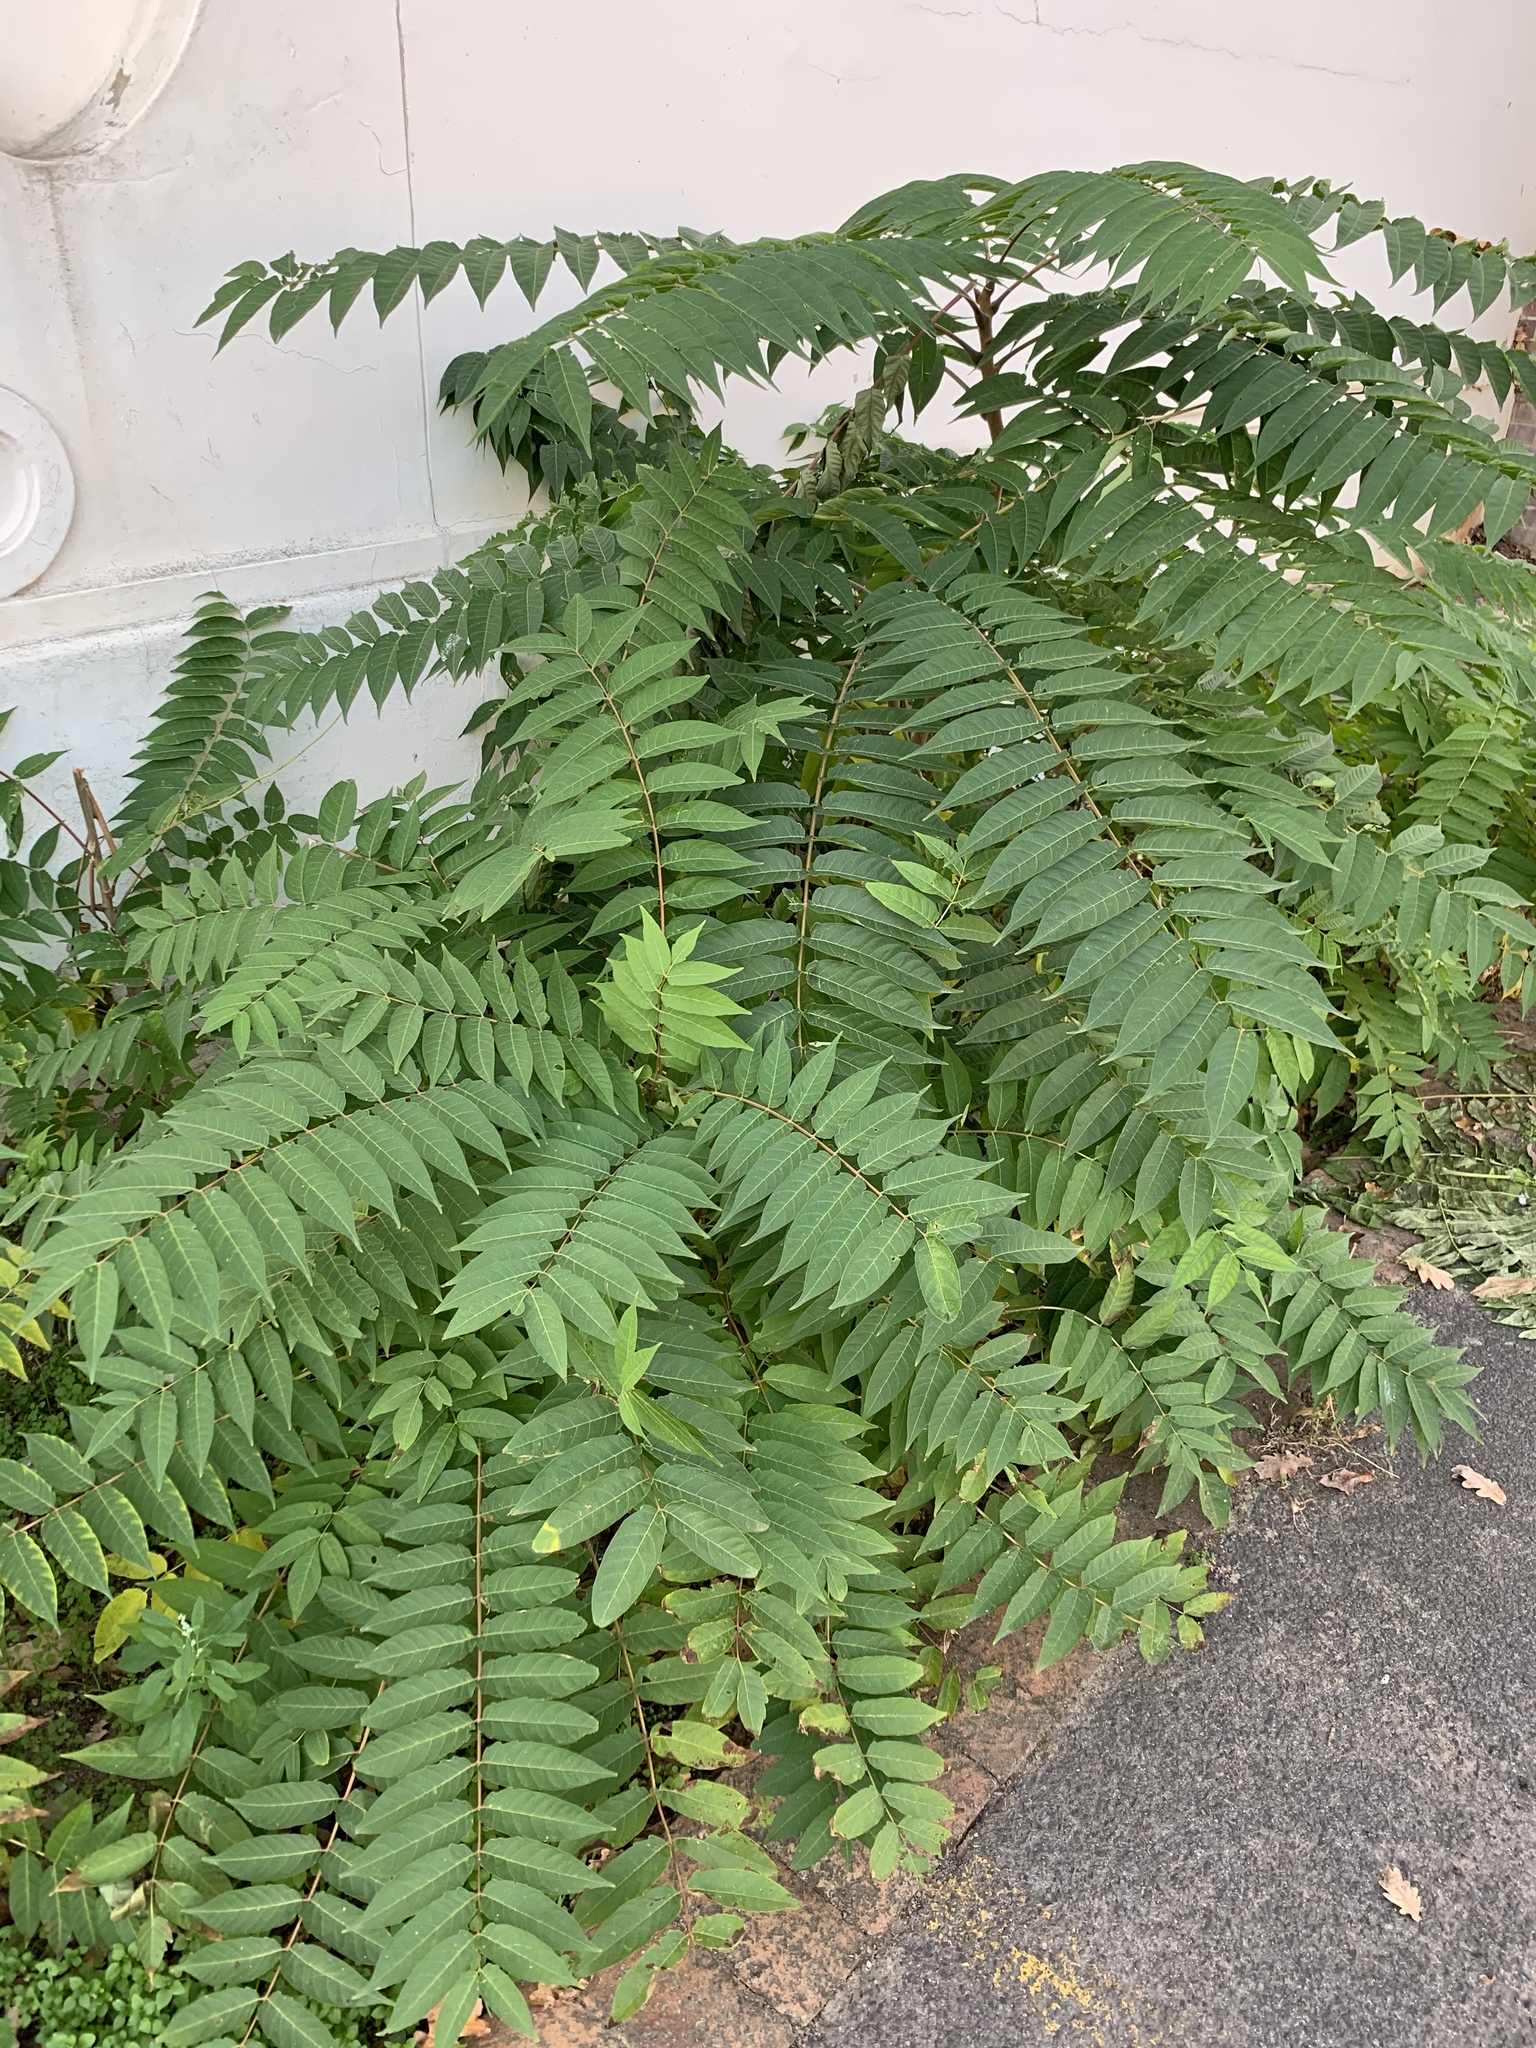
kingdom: Plantae
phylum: Tracheophyta
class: Magnoliopsida
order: Sapindales
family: Simaroubaceae
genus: Ailanthus
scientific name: Ailanthus altissima
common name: Tree-of-heaven
